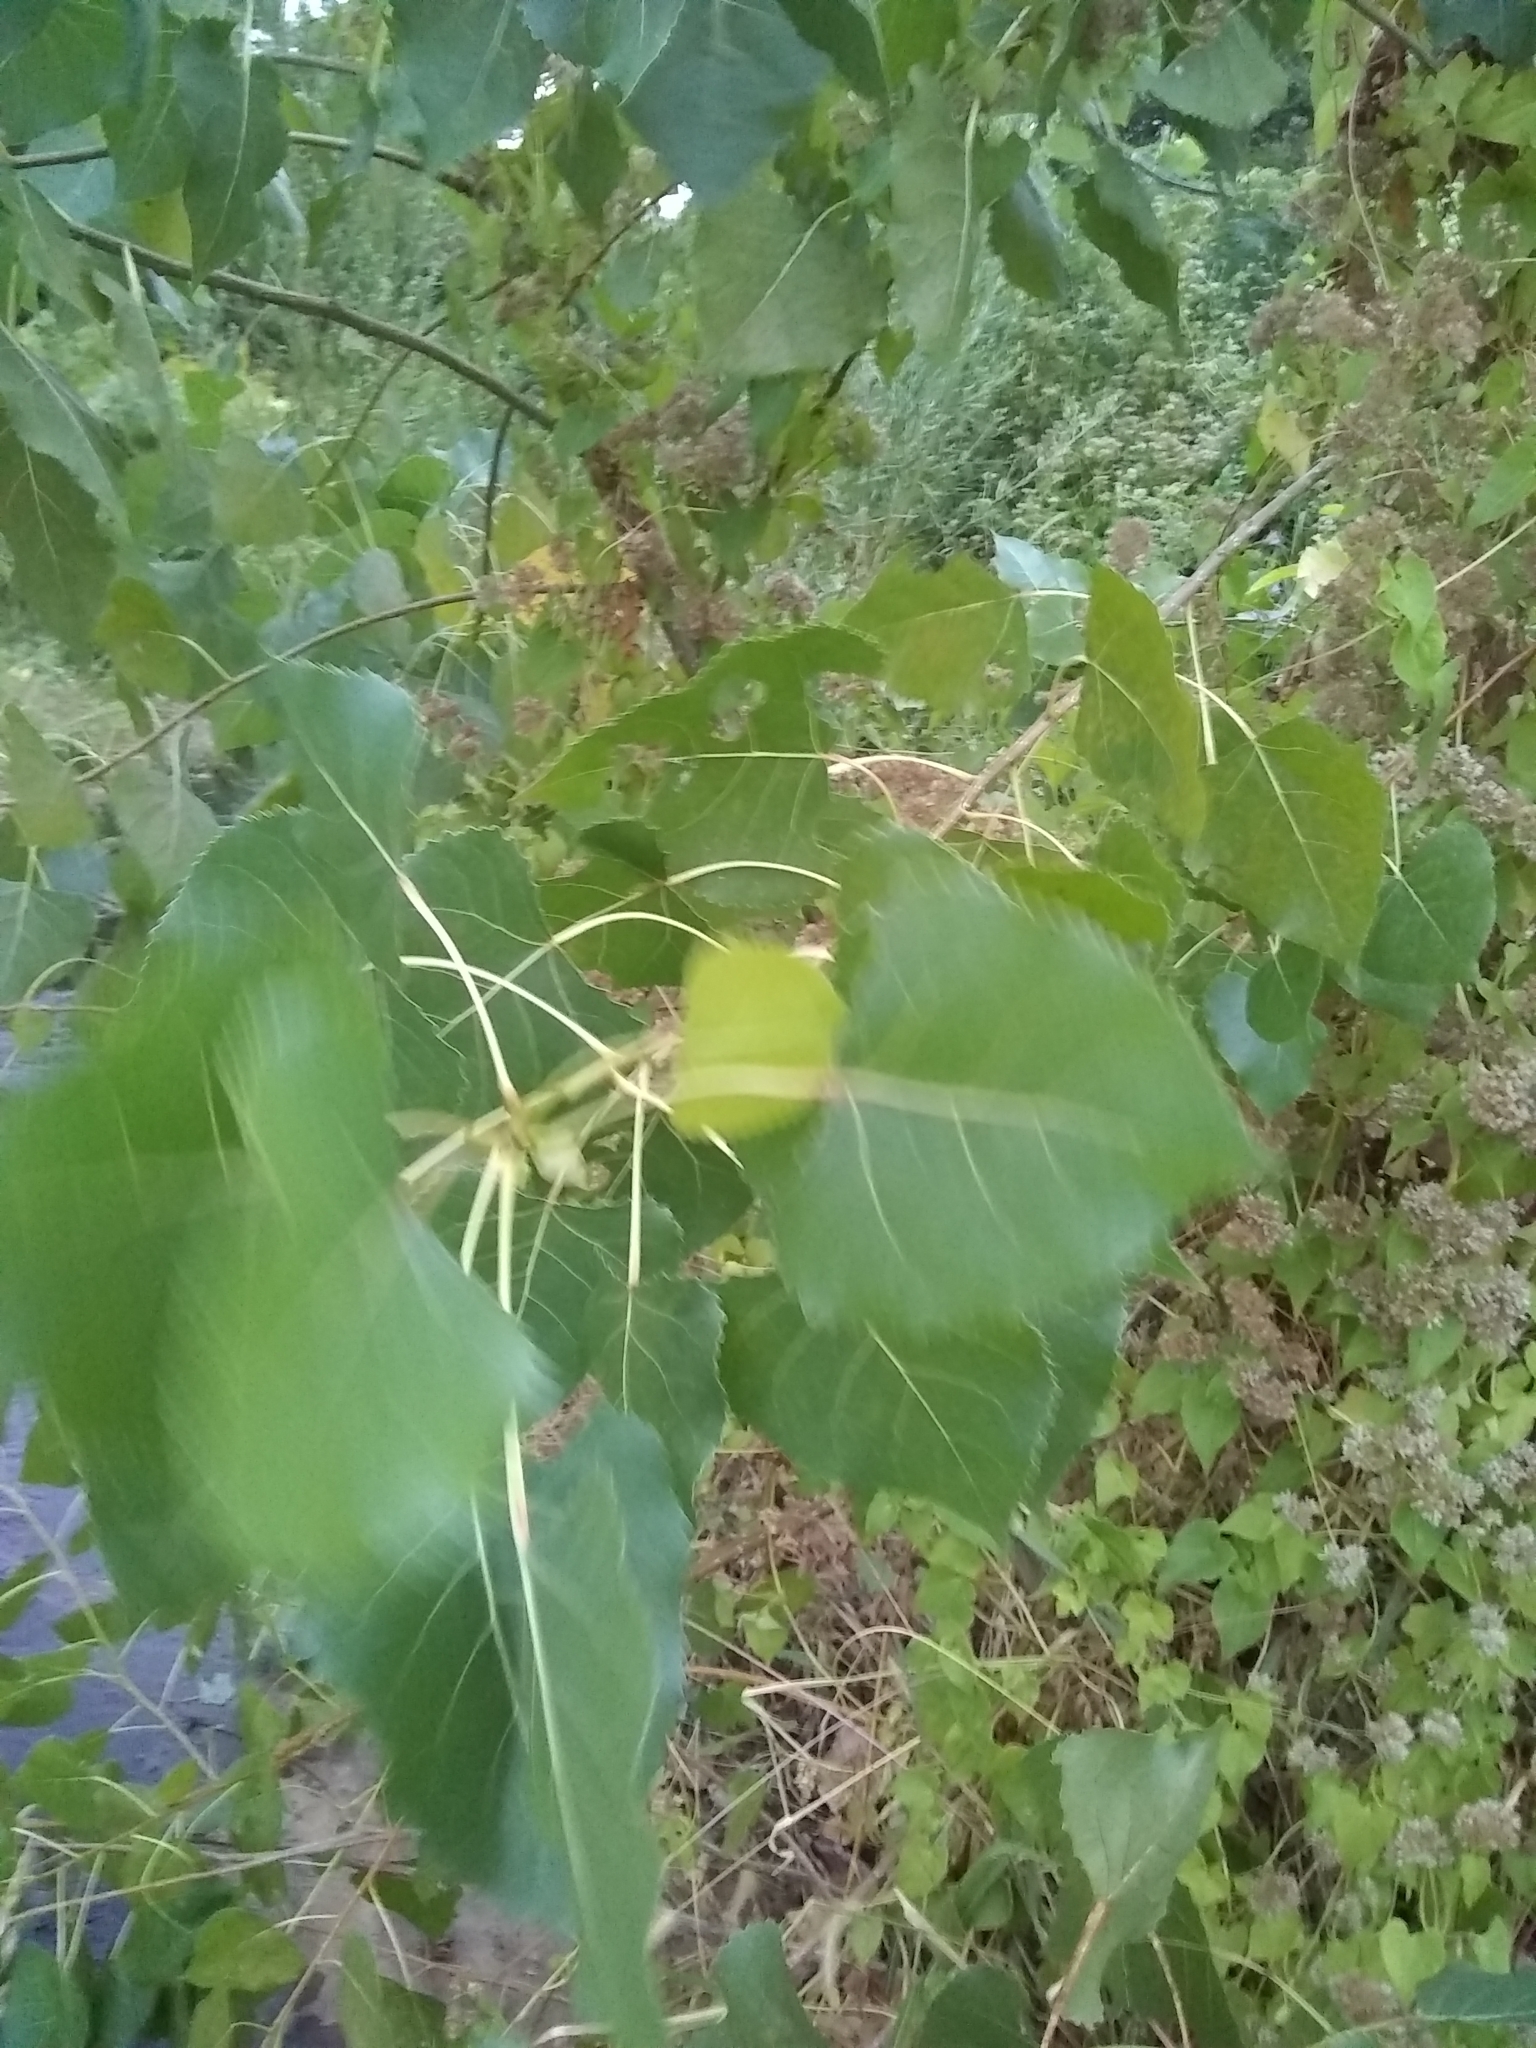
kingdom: Plantae
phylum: Tracheophyta
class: Magnoliopsida
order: Malpighiales
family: Salicaceae
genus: Populus
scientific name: Populus deltoides
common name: Eastern cottonwood
